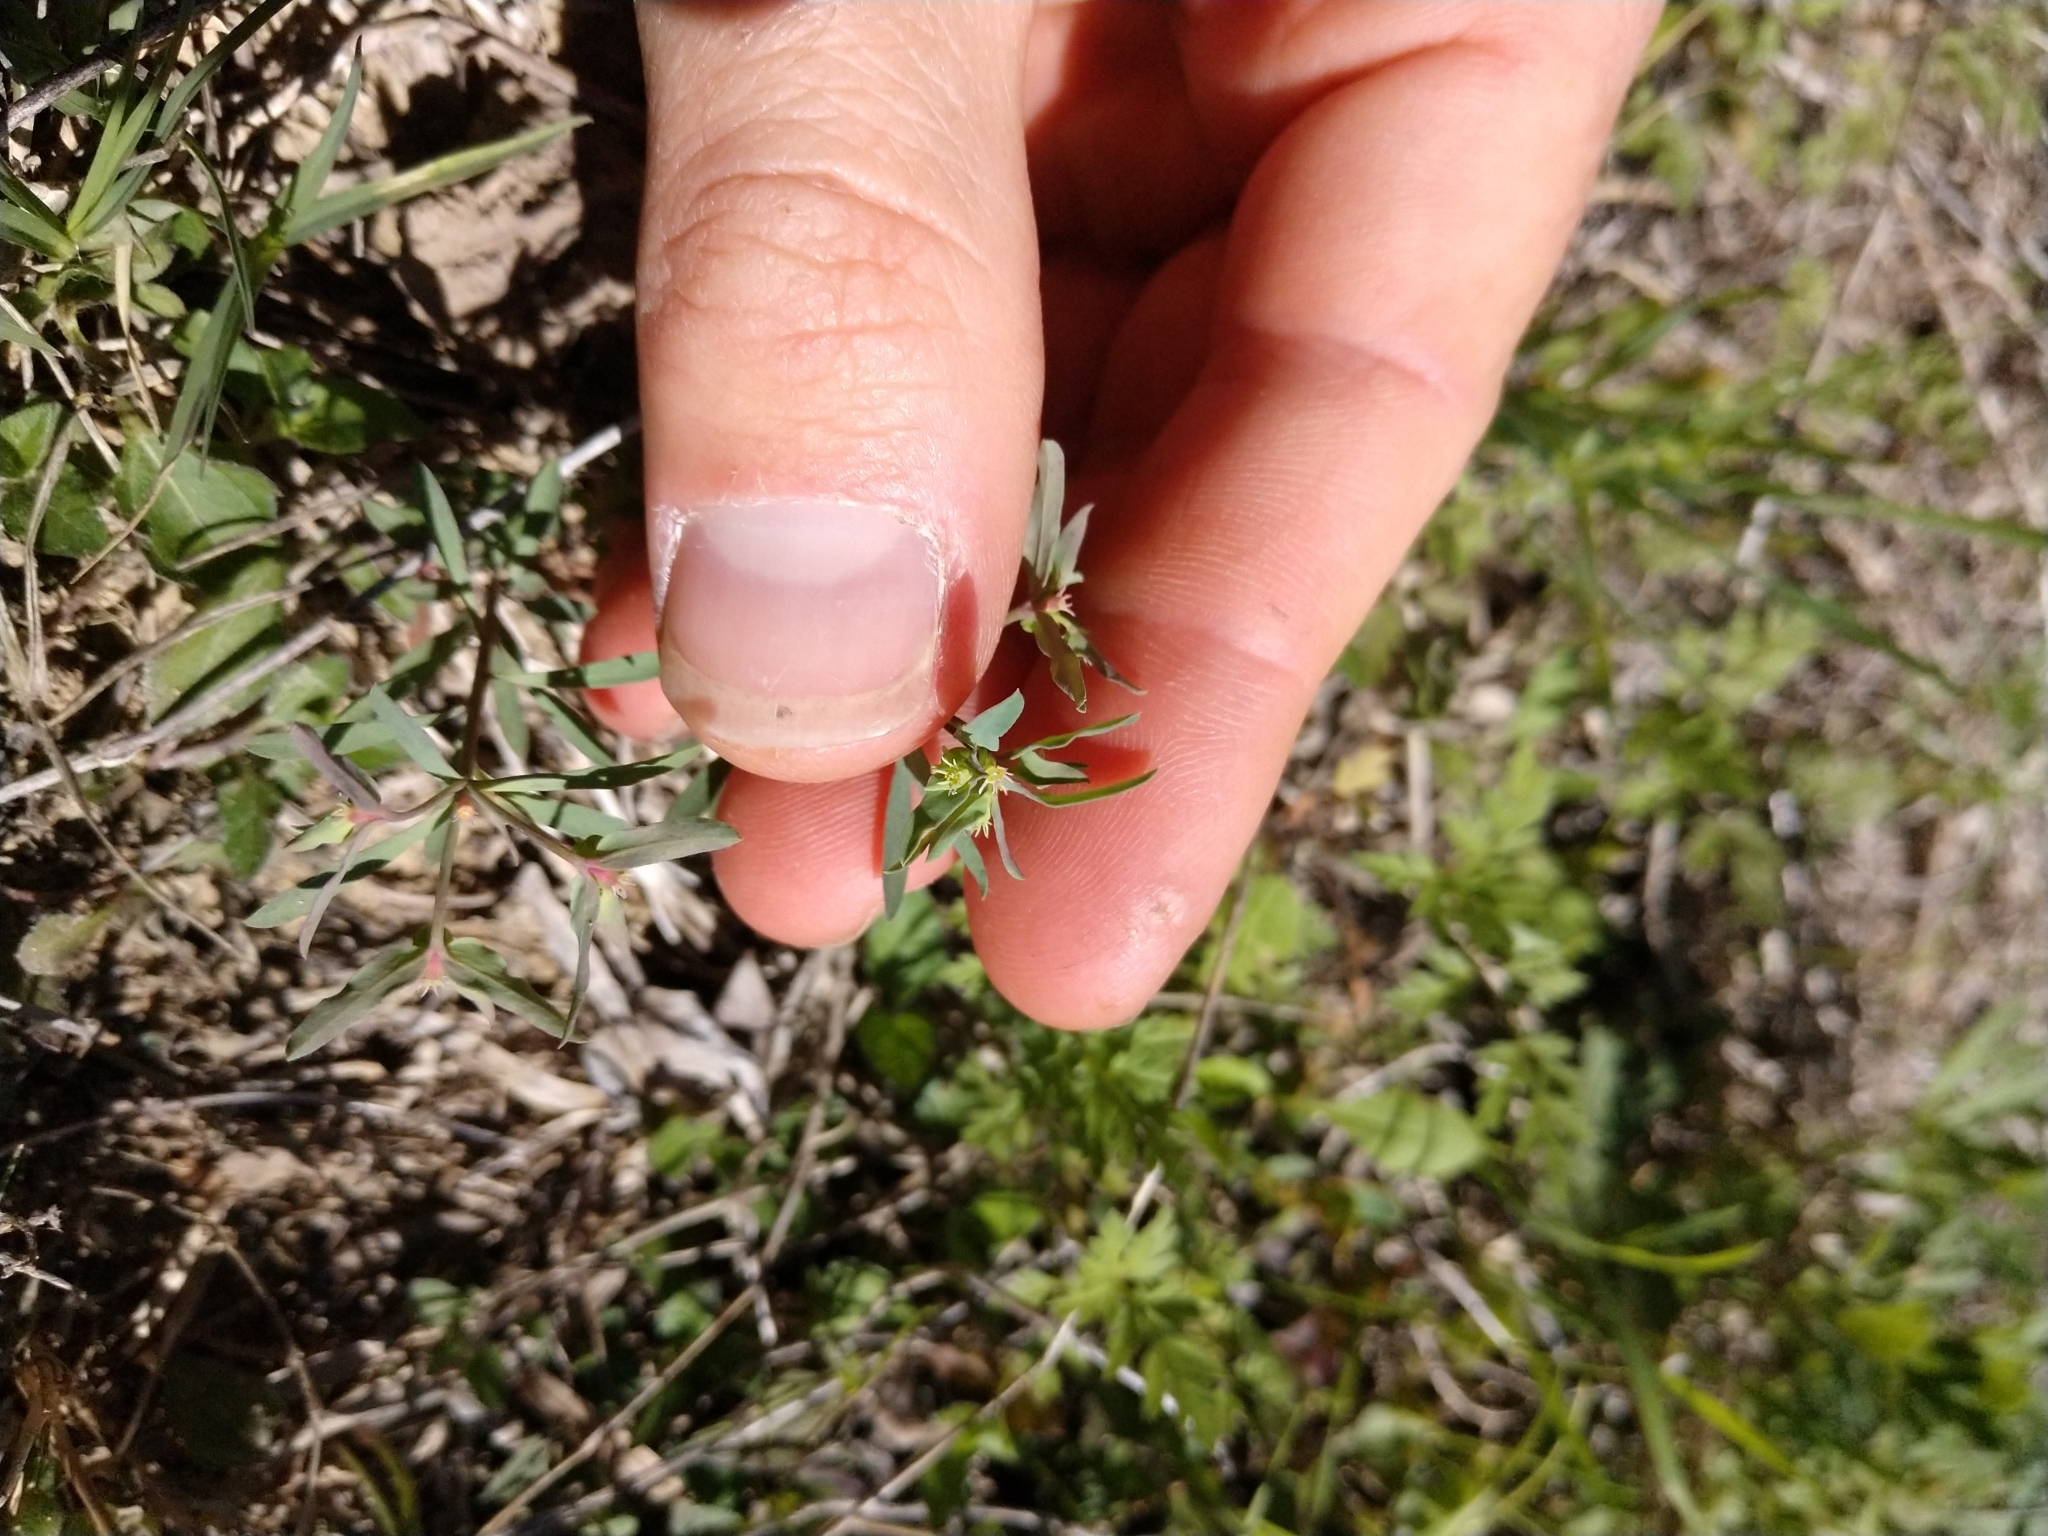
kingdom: Plantae
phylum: Tracheophyta
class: Magnoliopsida
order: Malpighiales
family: Euphorbiaceae
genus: Euphorbia
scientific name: Euphorbia peplidion
